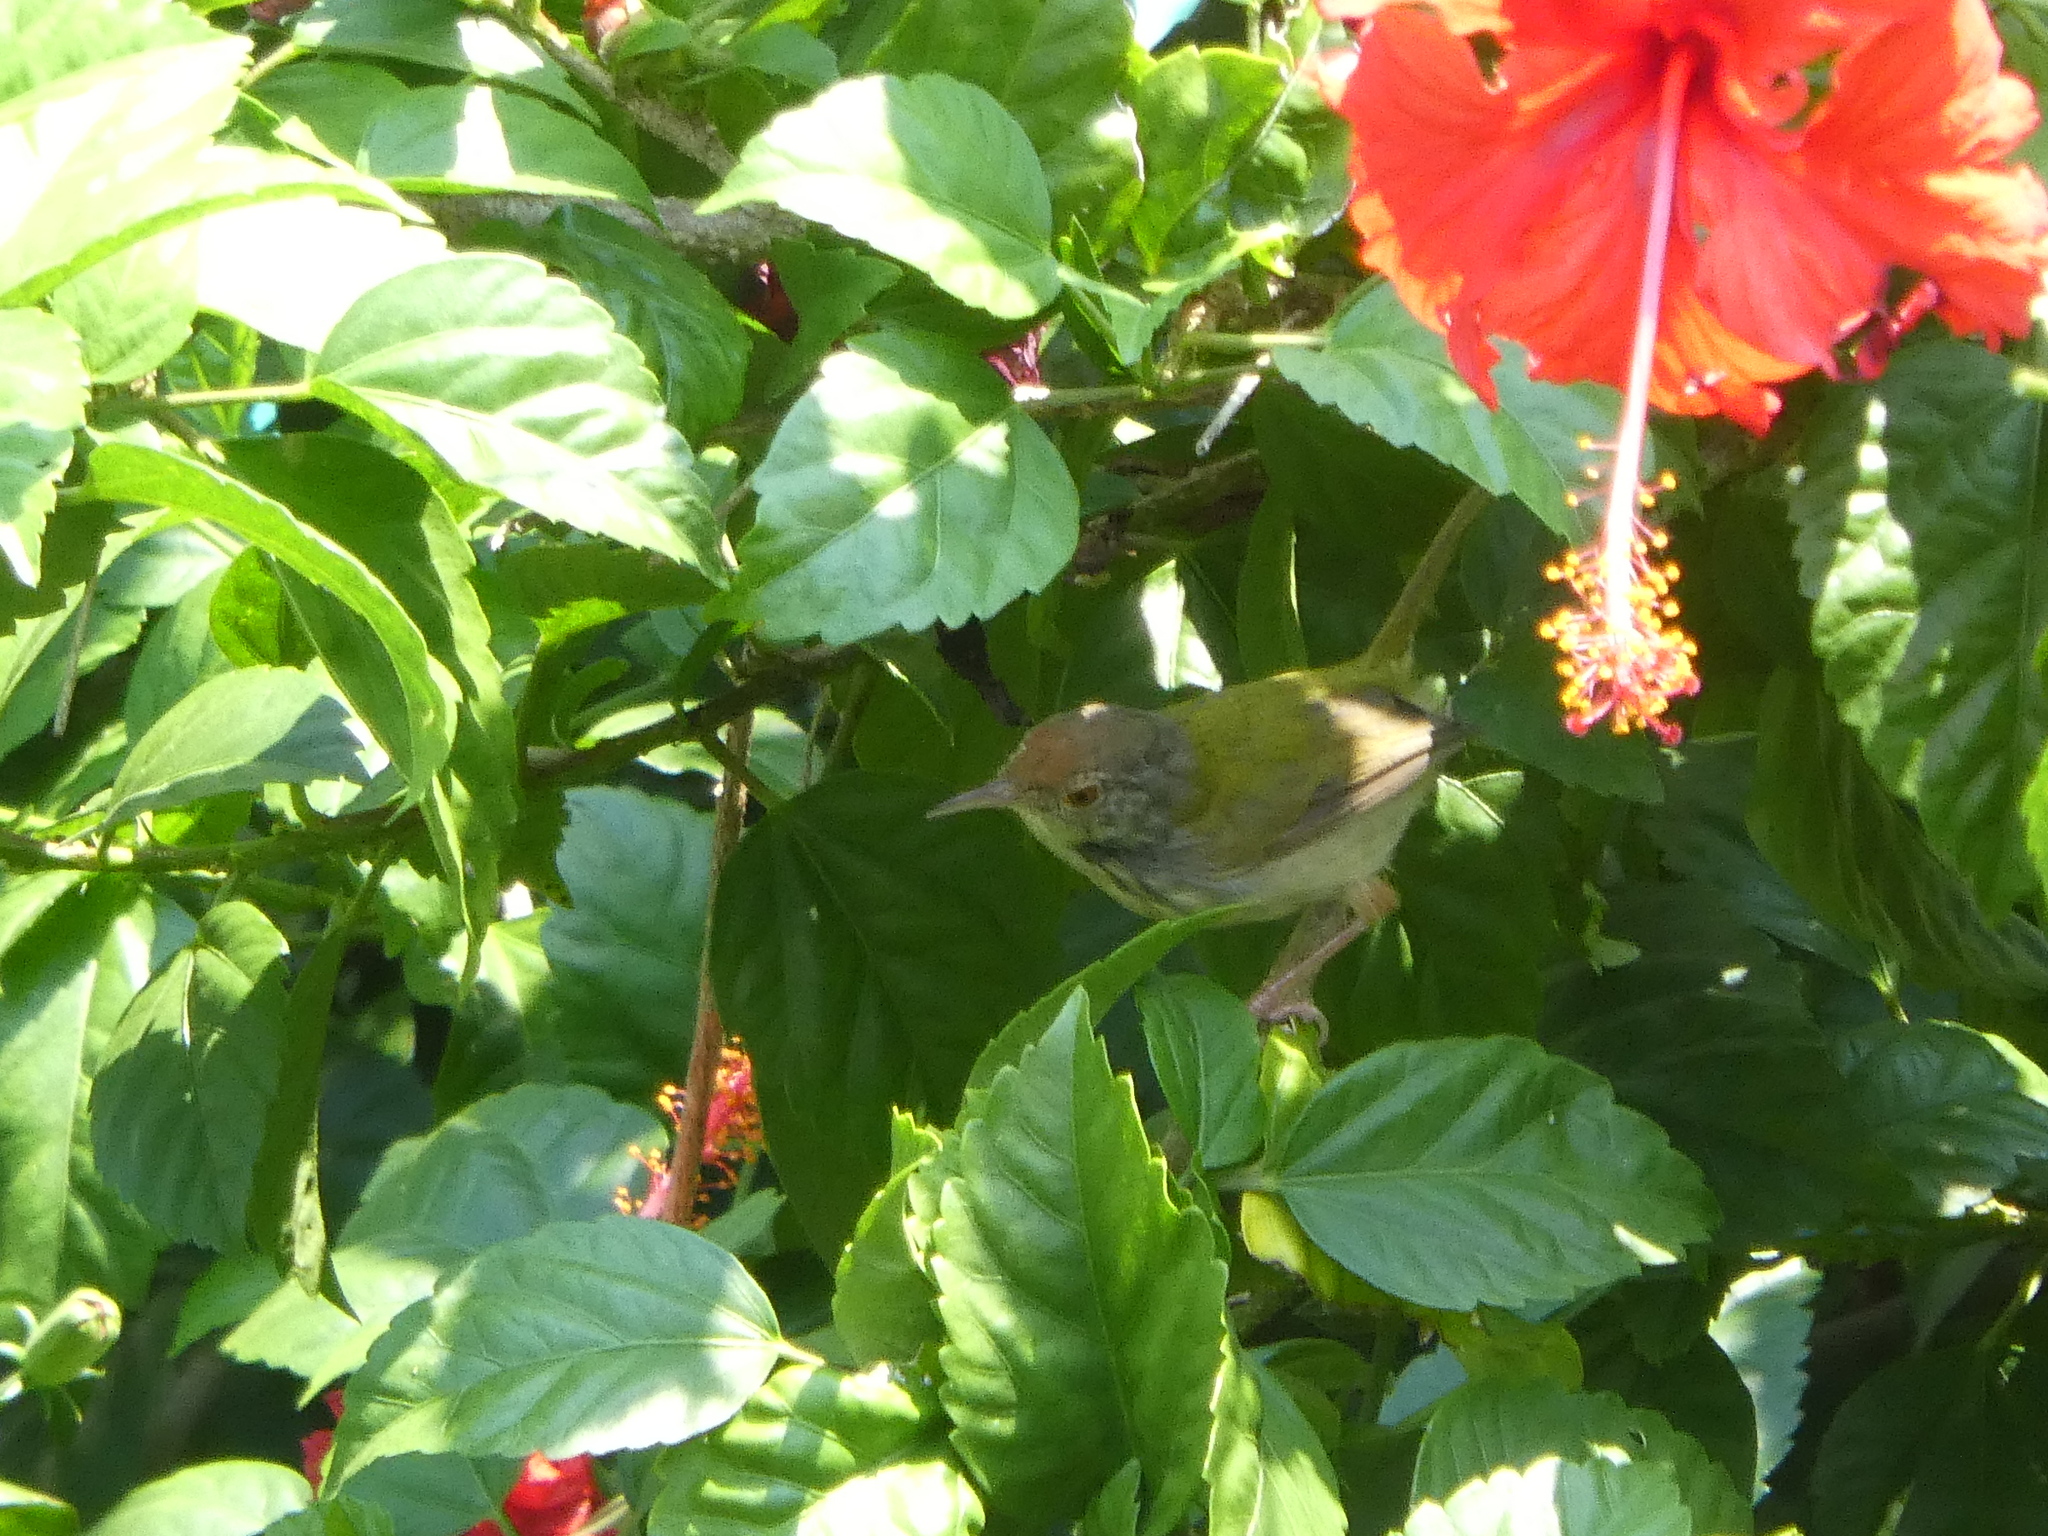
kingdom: Animalia
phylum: Chordata
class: Aves
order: Passeriformes
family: Cisticolidae
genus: Orthotomus
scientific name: Orthotomus sutorius
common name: Common tailorbird
